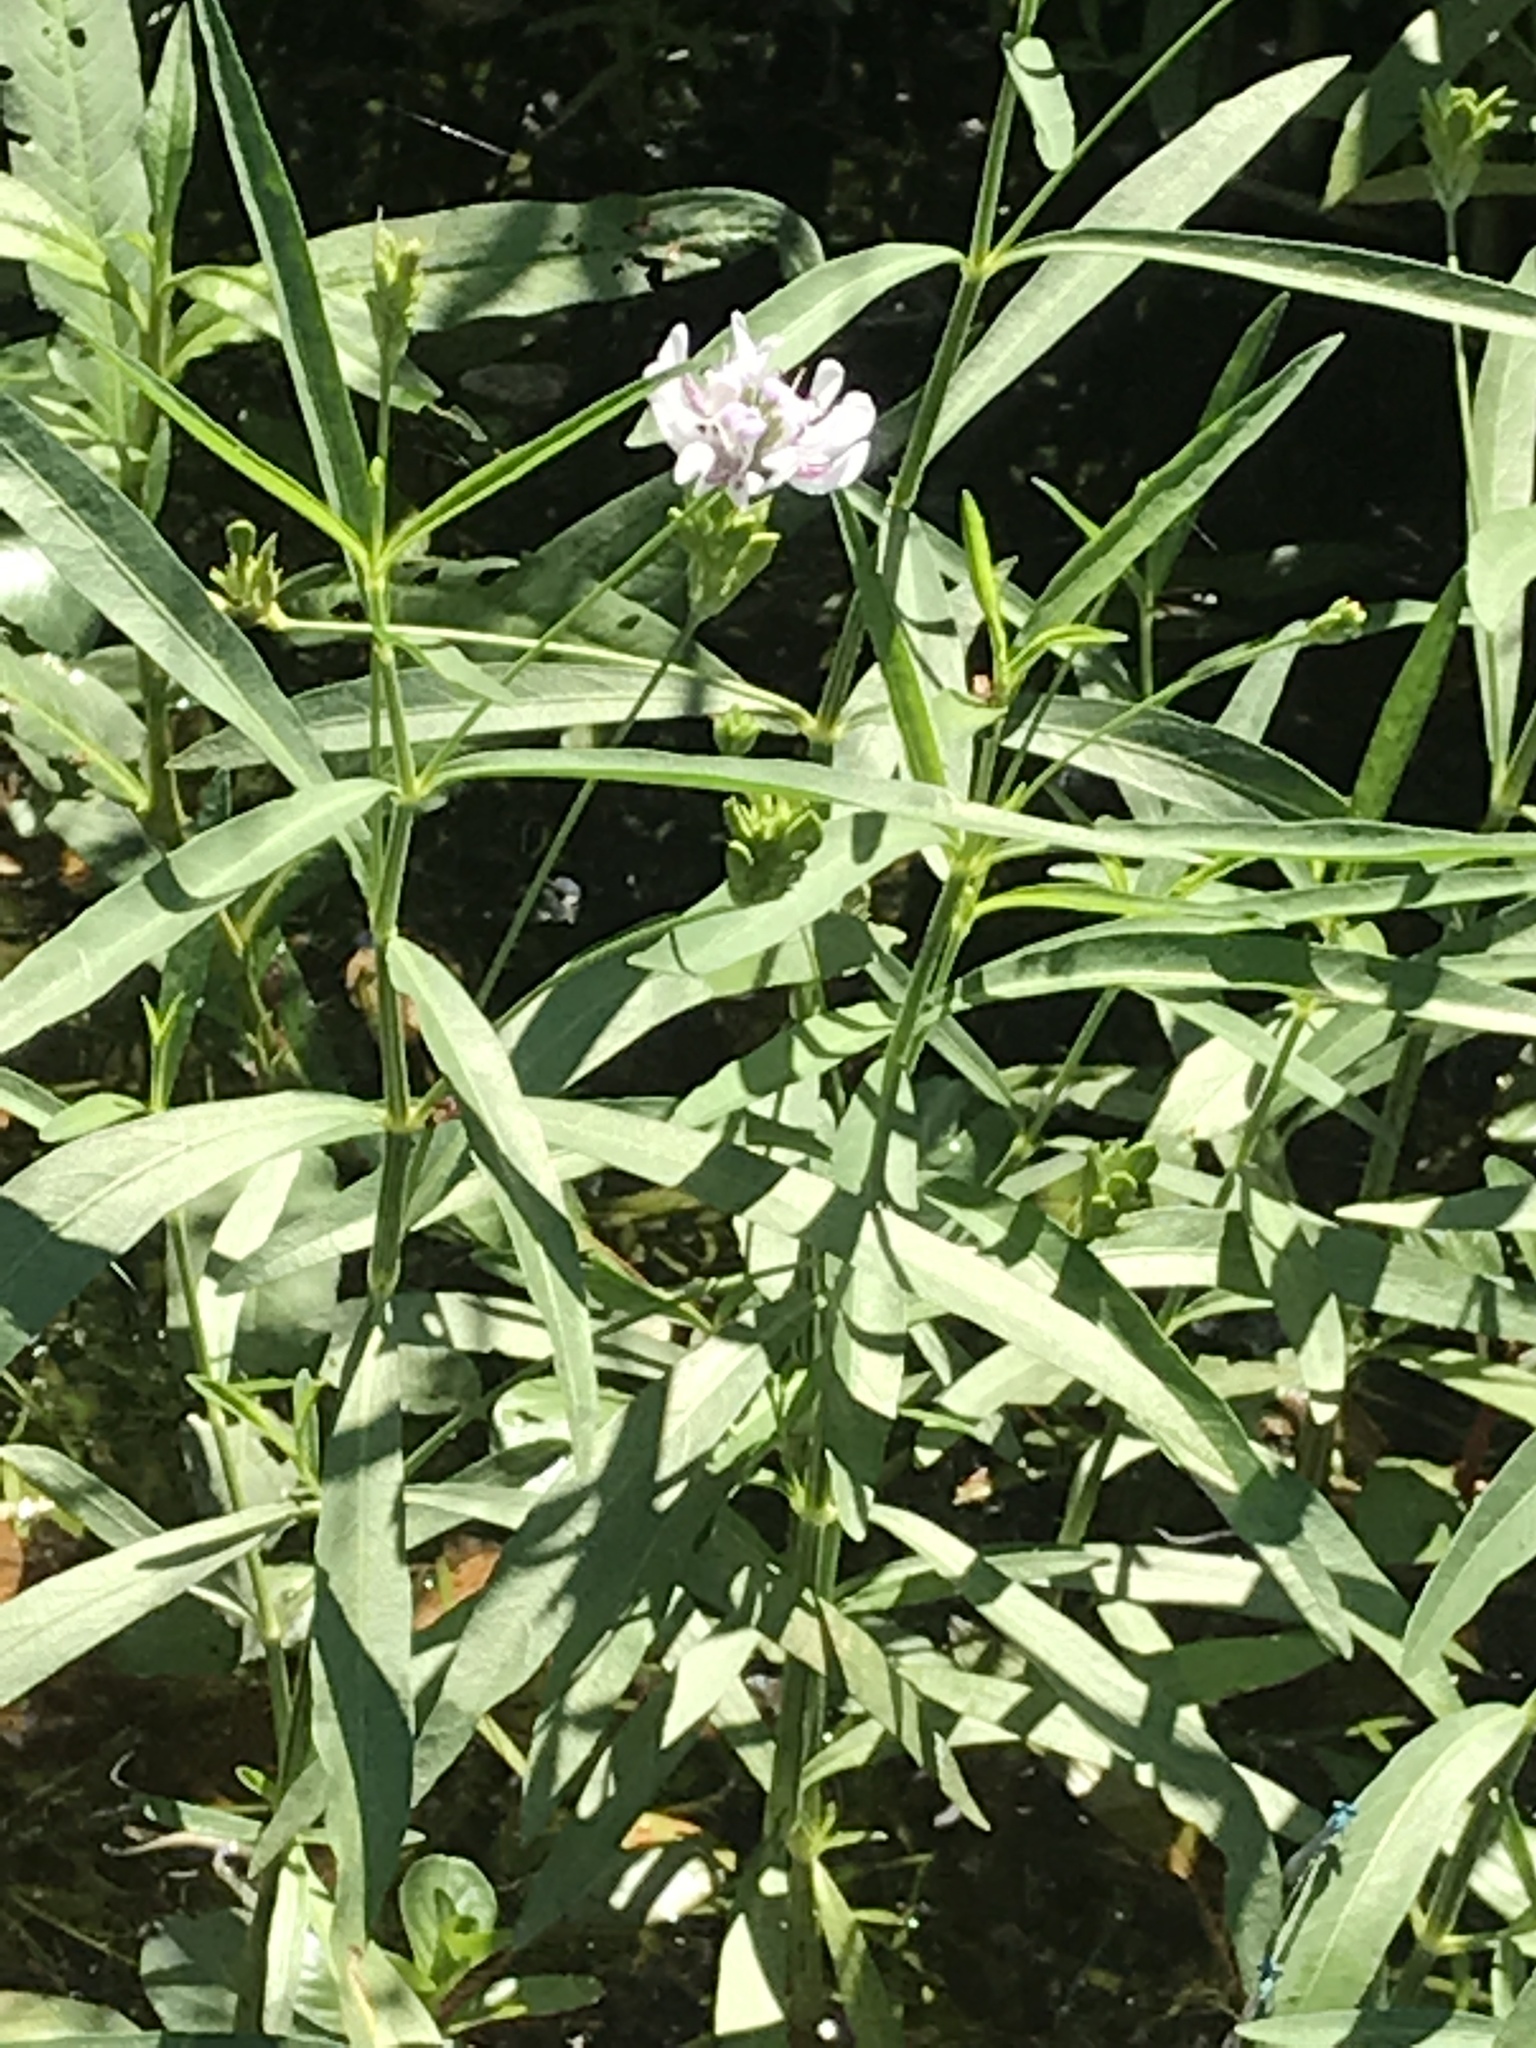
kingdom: Plantae
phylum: Tracheophyta
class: Magnoliopsida
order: Lamiales
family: Acanthaceae
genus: Dianthera
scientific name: Dianthera americana
